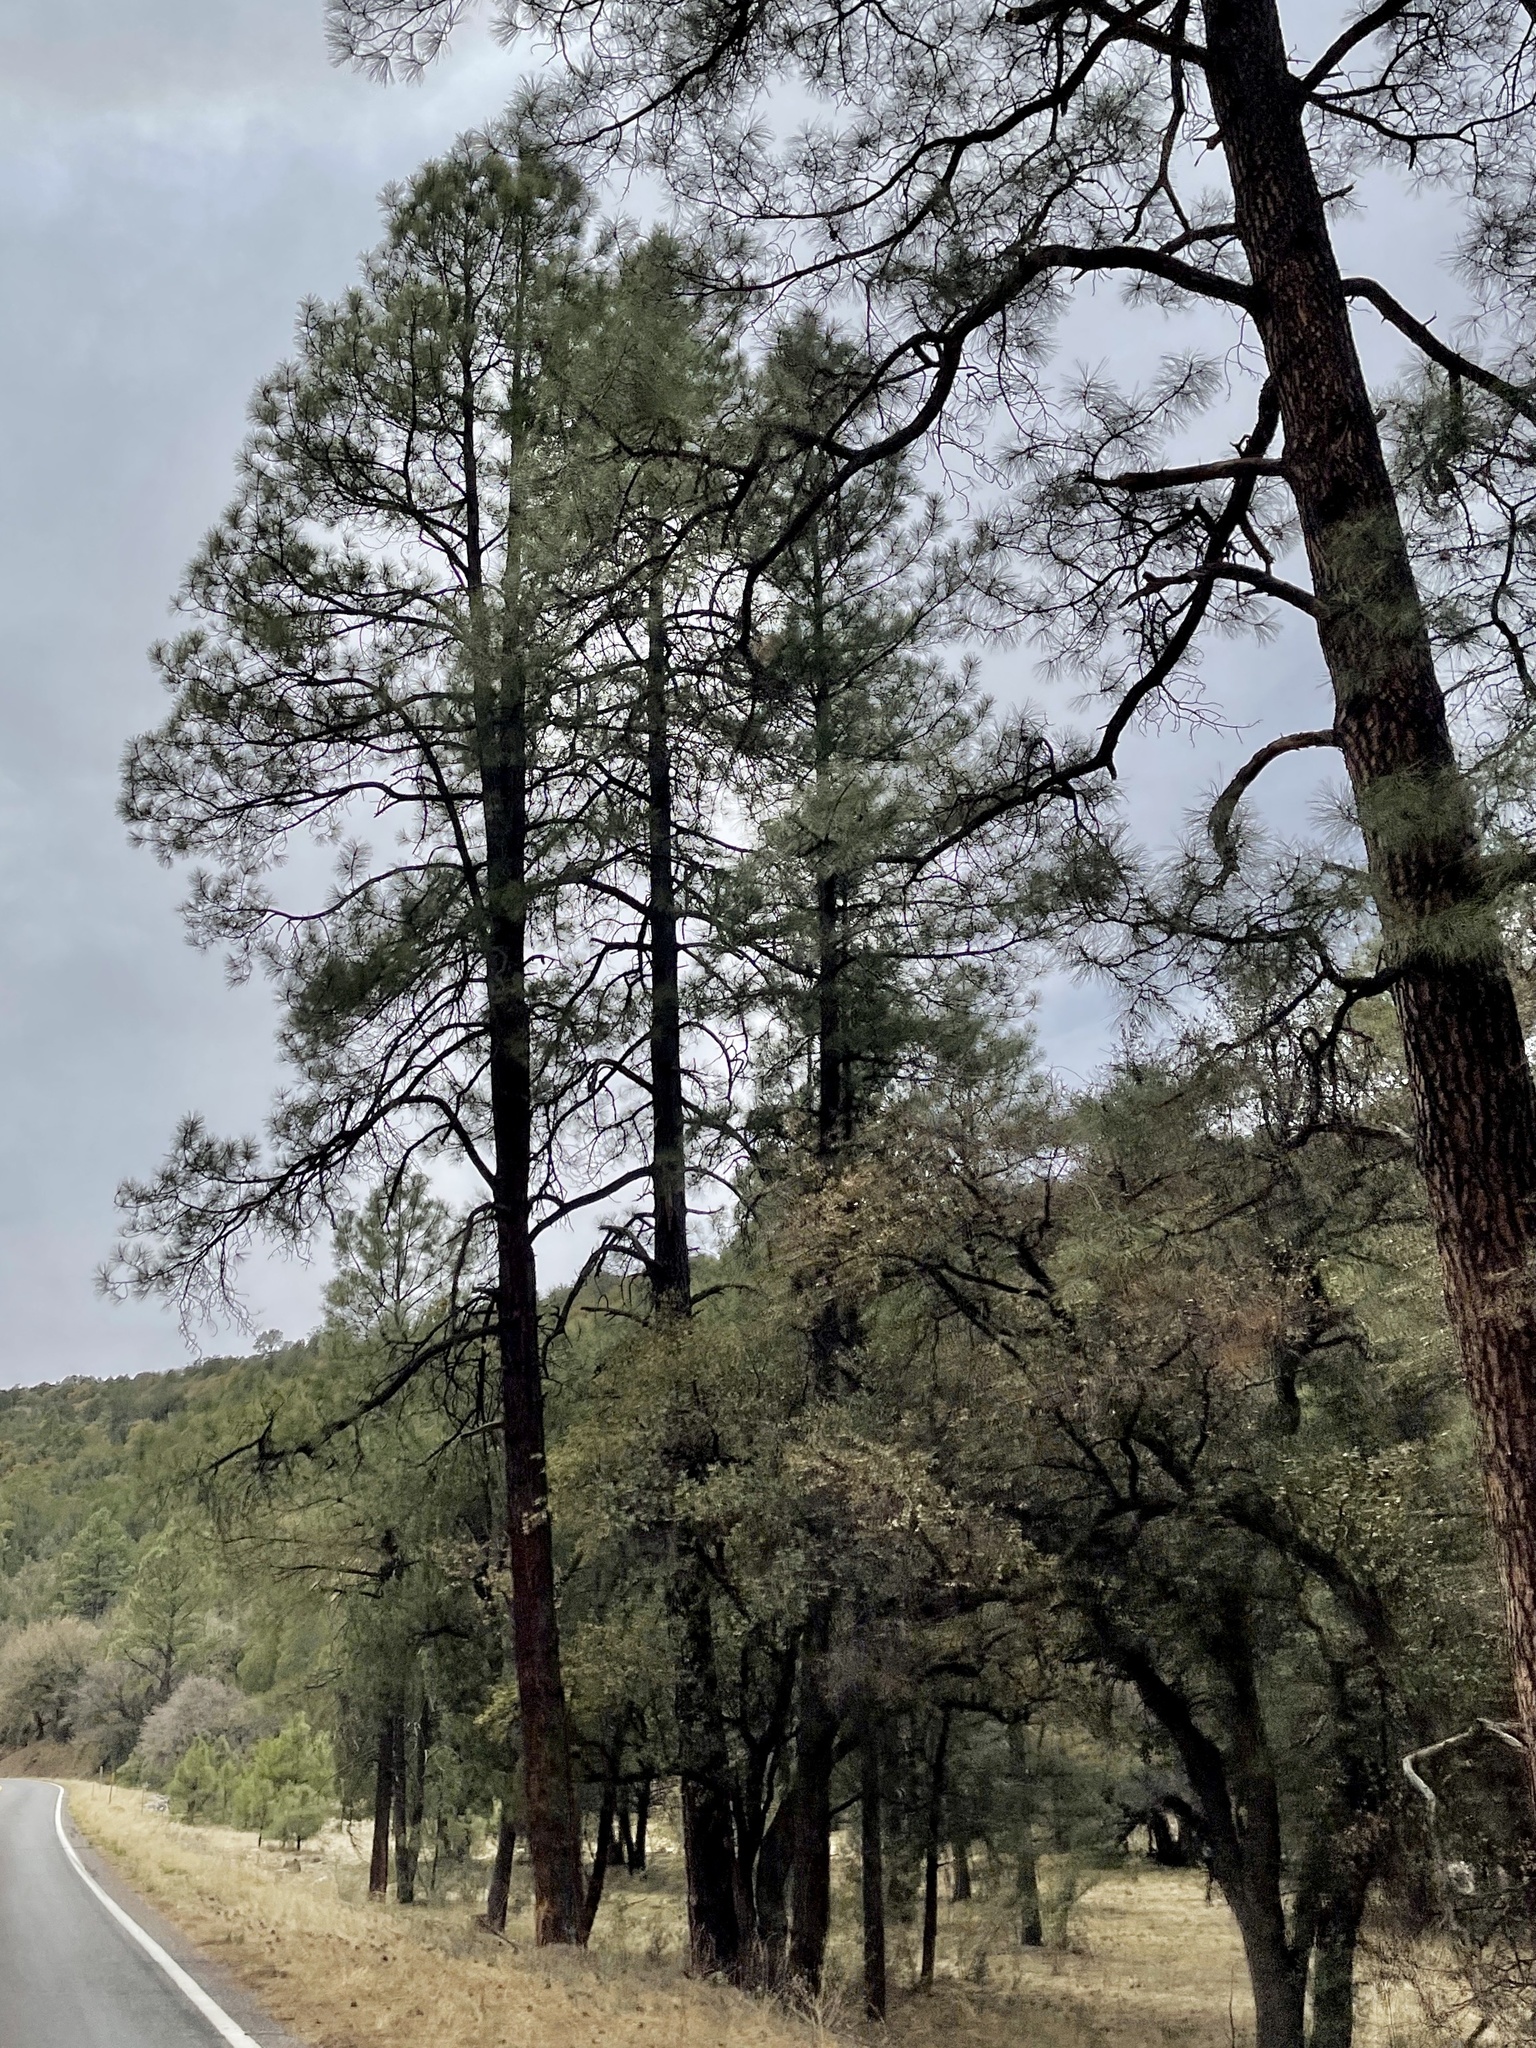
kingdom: Plantae
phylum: Tracheophyta
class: Pinopsida
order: Pinales
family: Pinaceae
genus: Pinus
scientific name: Pinus ponderosa
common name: Western yellow-pine
